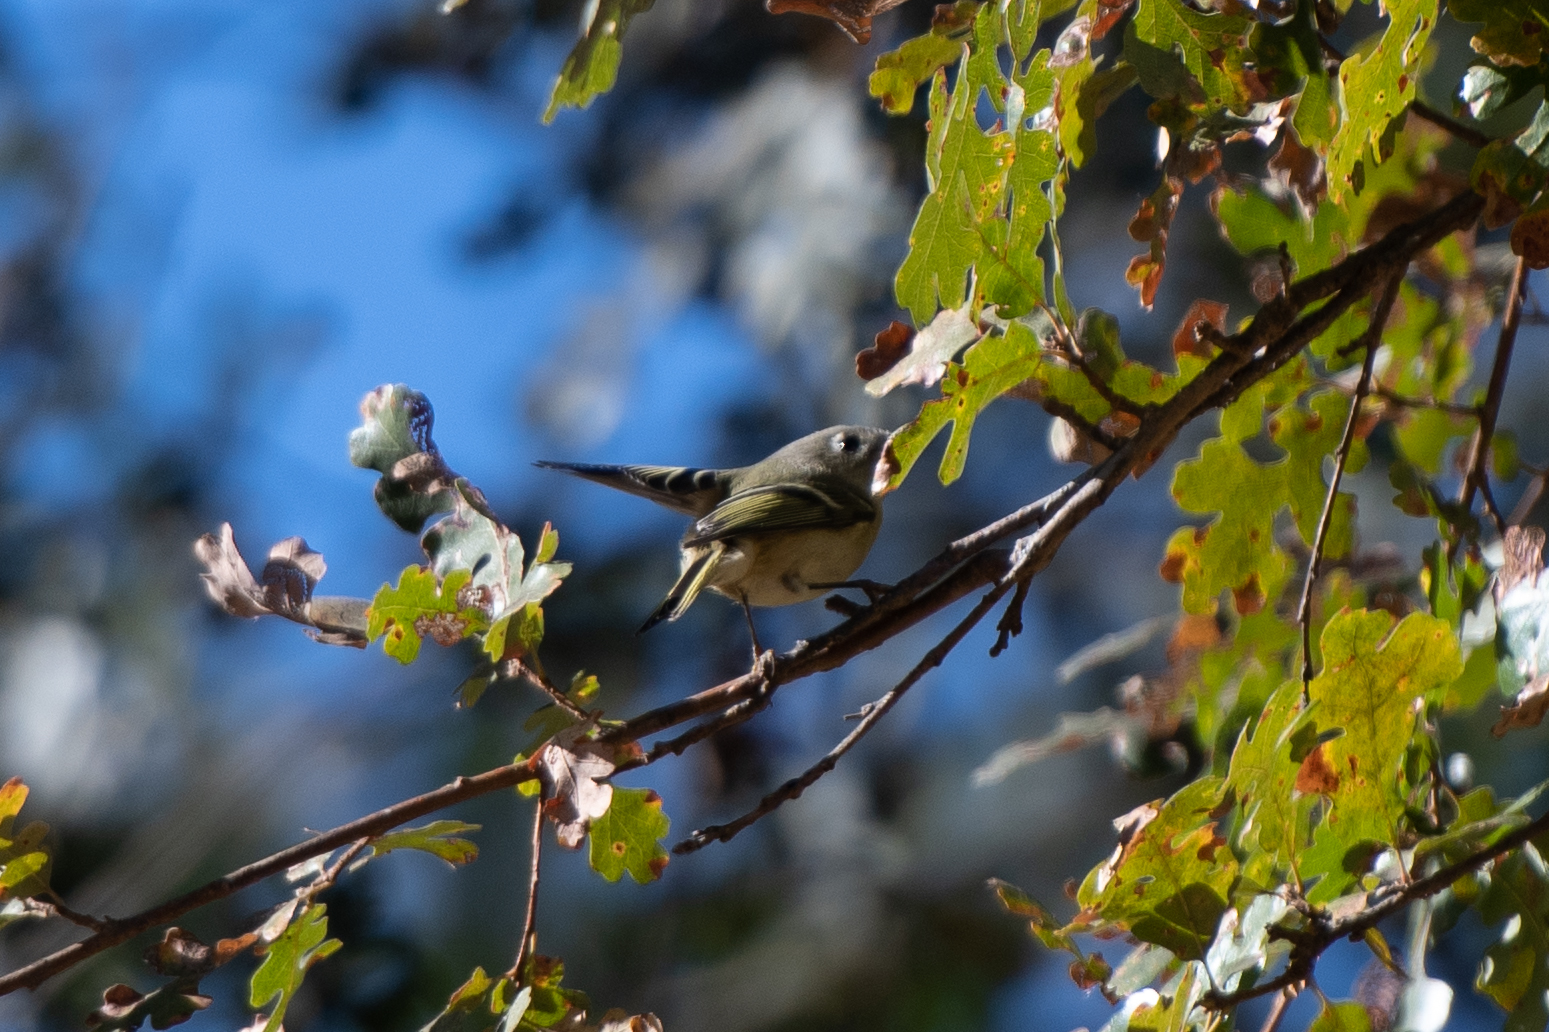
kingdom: Animalia
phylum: Chordata
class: Aves
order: Passeriformes
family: Regulidae
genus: Regulus
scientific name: Regulus calendula
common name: Ruby-crowned kinglet
